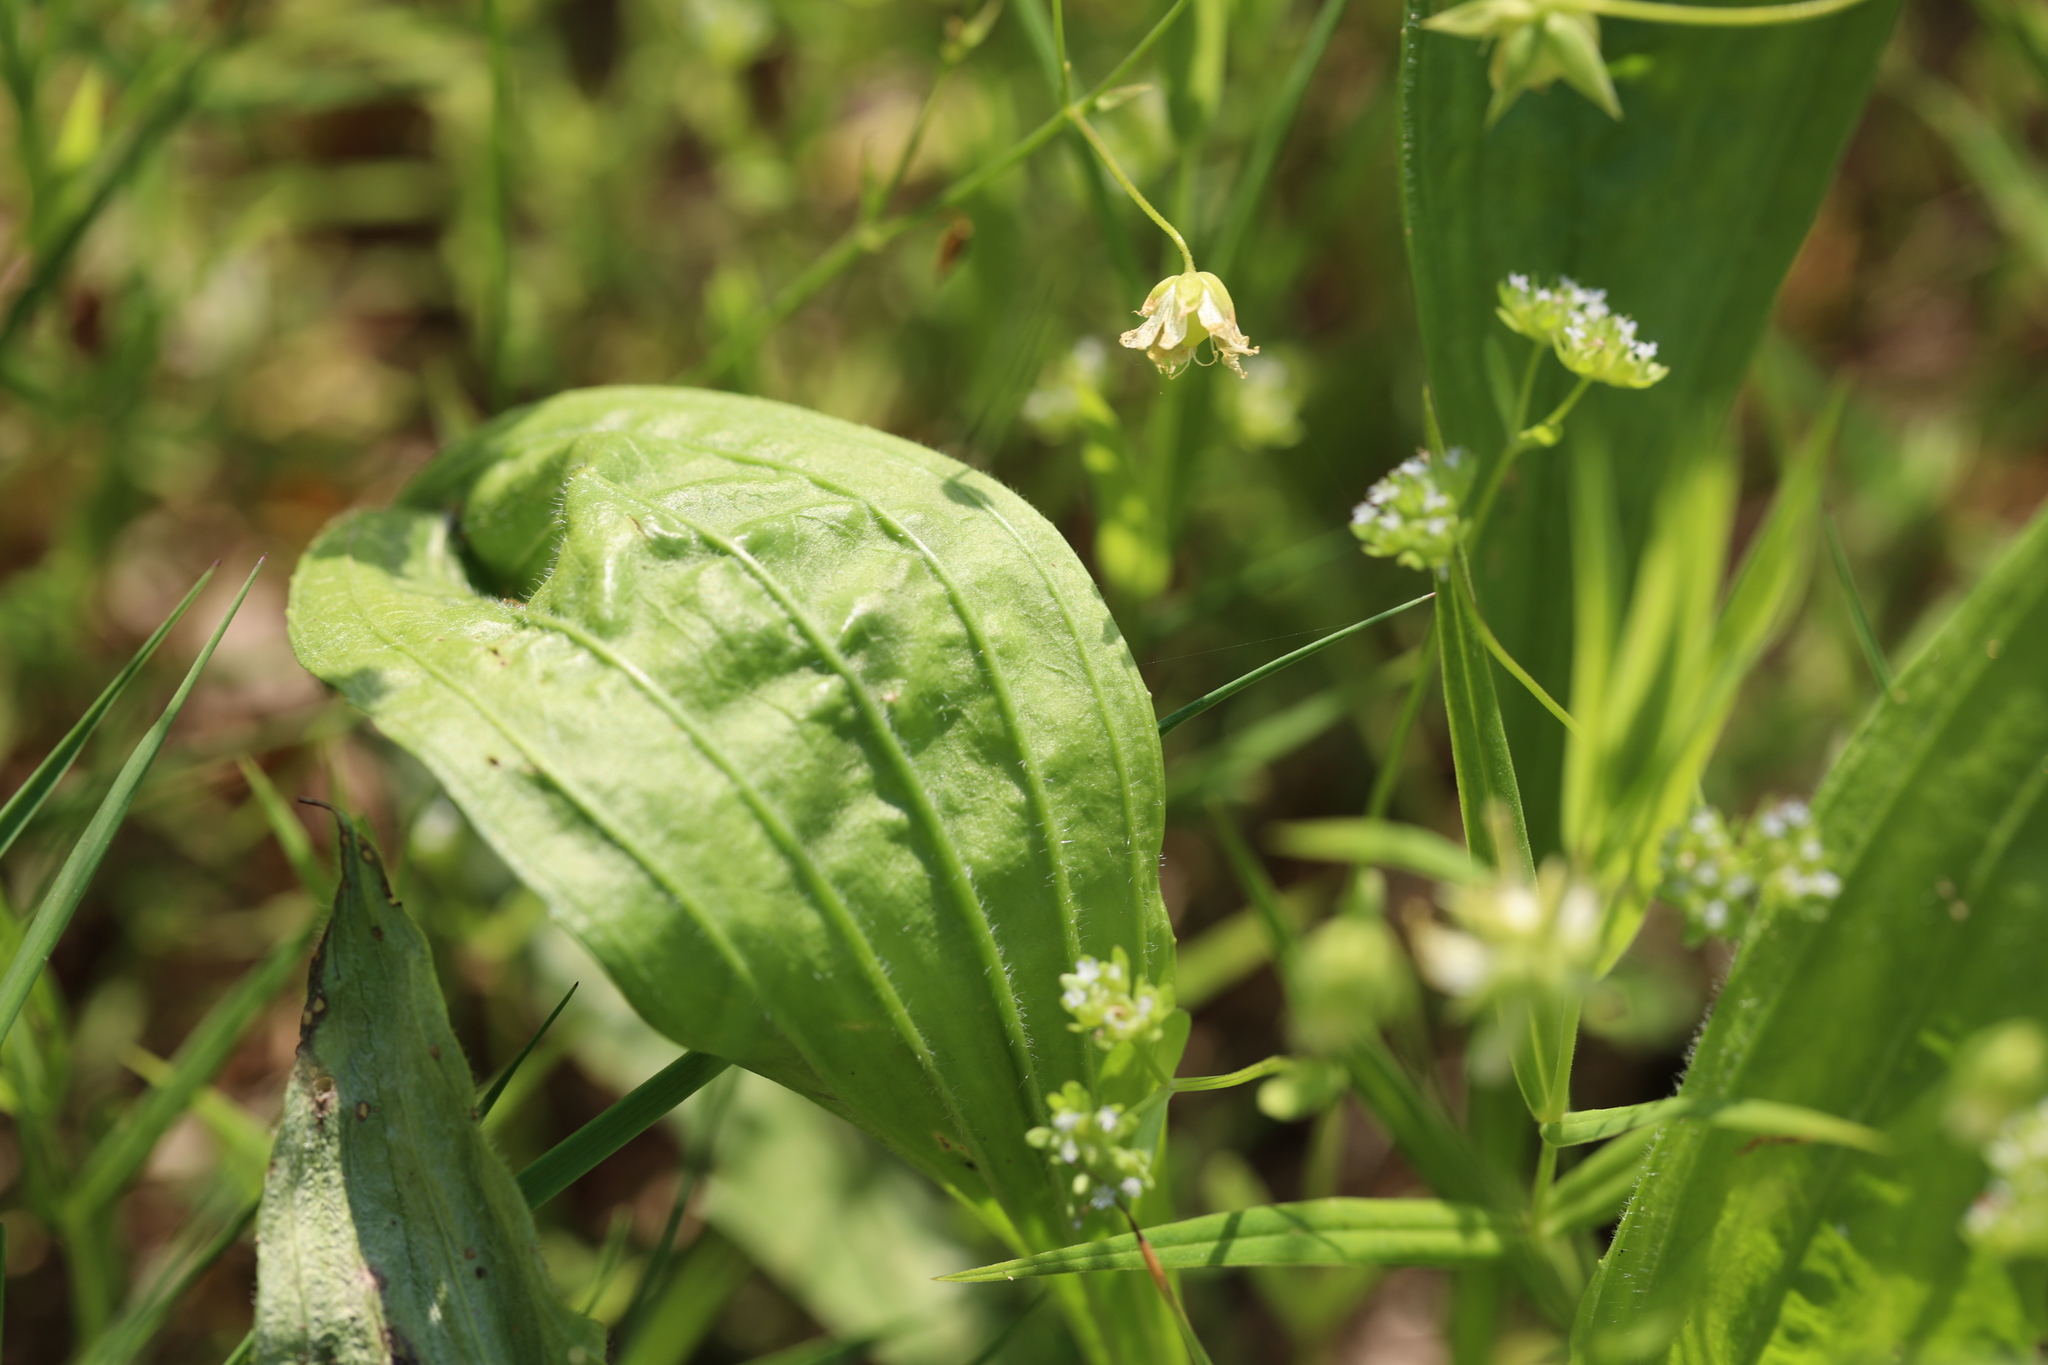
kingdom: Plantae
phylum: Tracheophyta
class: Magnoliopsida
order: Lamiales
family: Plantaginaceae
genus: Plantago
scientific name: Plantago major
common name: Common plantain
